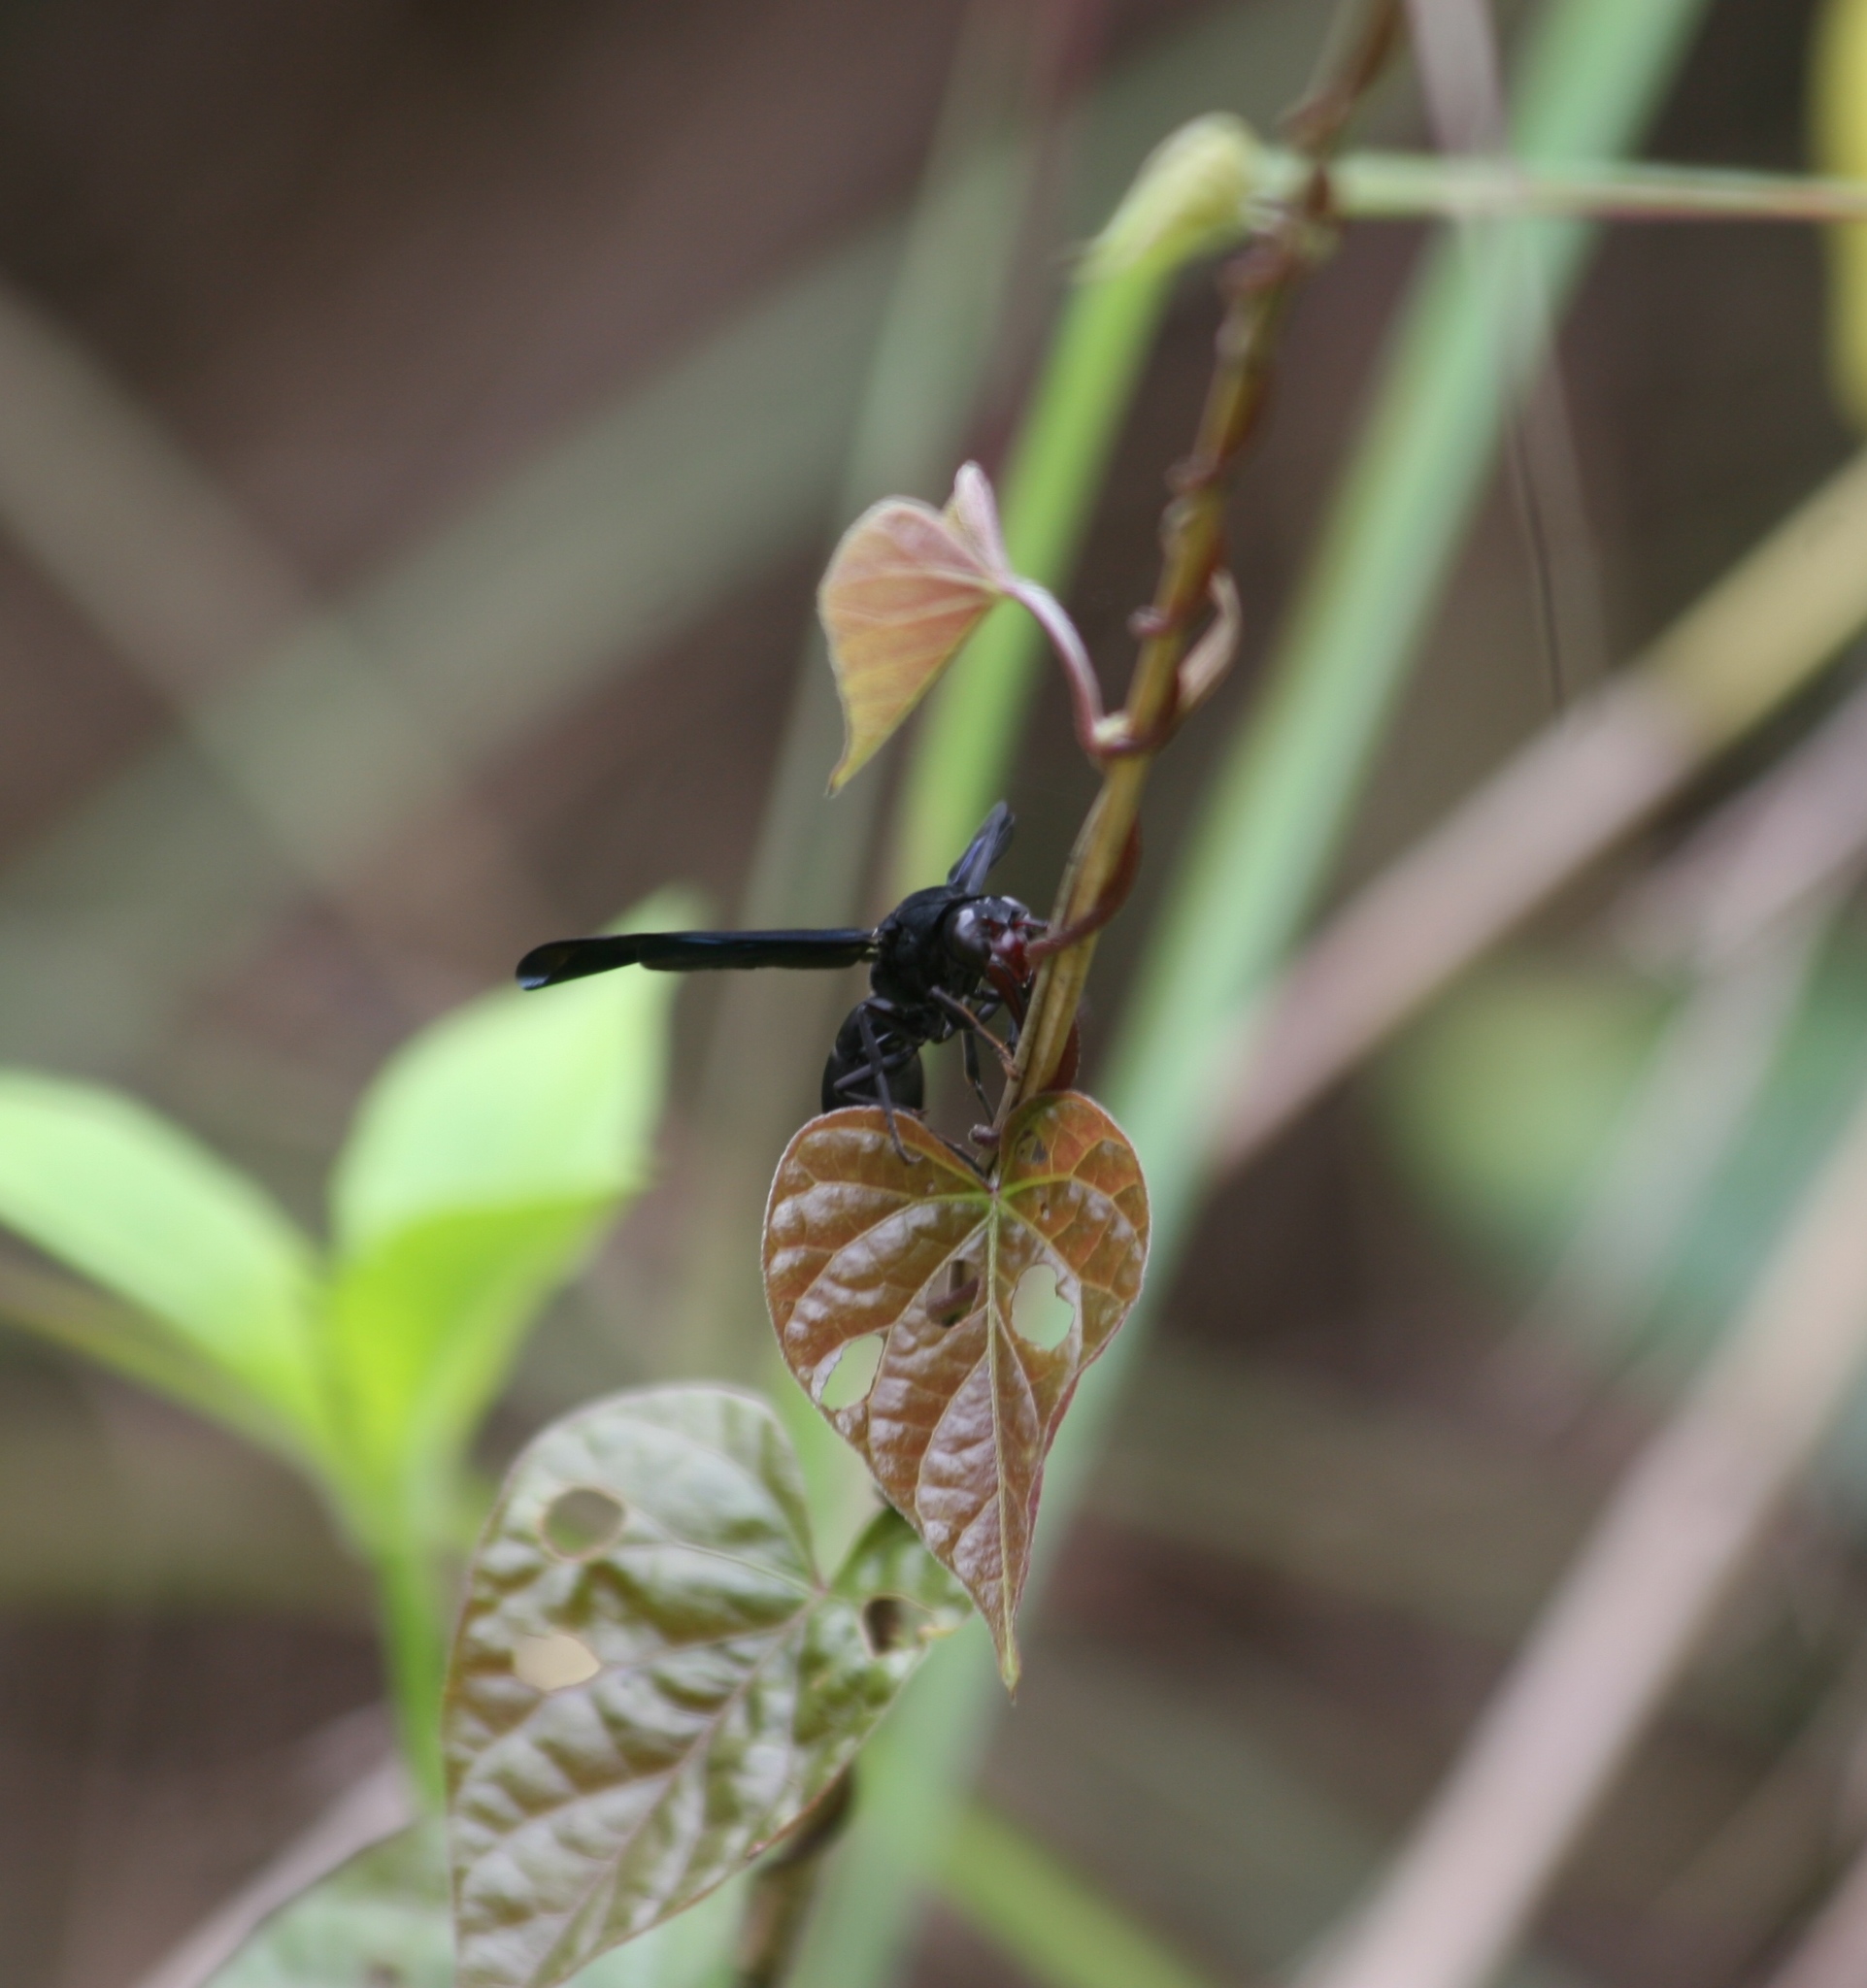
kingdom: Animalia
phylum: Arthropoda
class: Insecta
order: Hymenoptera
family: Eumenidae
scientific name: Eumenidae
